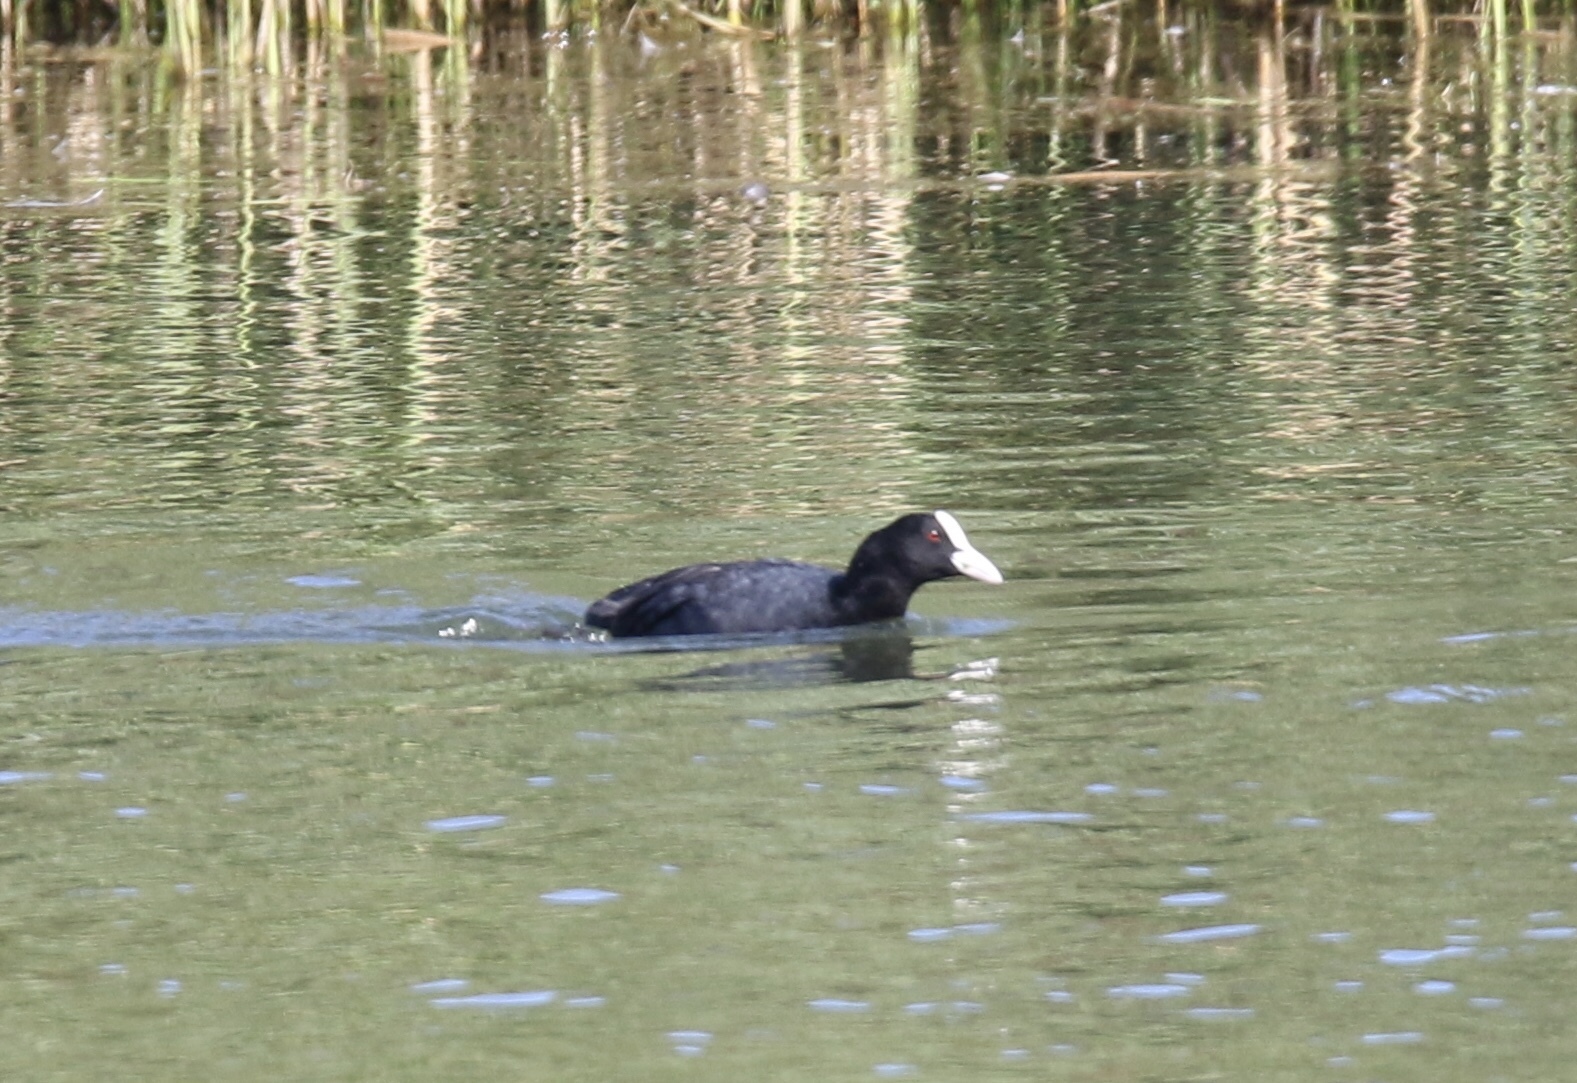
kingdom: Animalia
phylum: Chordata
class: Aves
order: Gruiformes
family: Rallidae
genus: Fulica
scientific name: Fulica atra
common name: Eurasian coot
